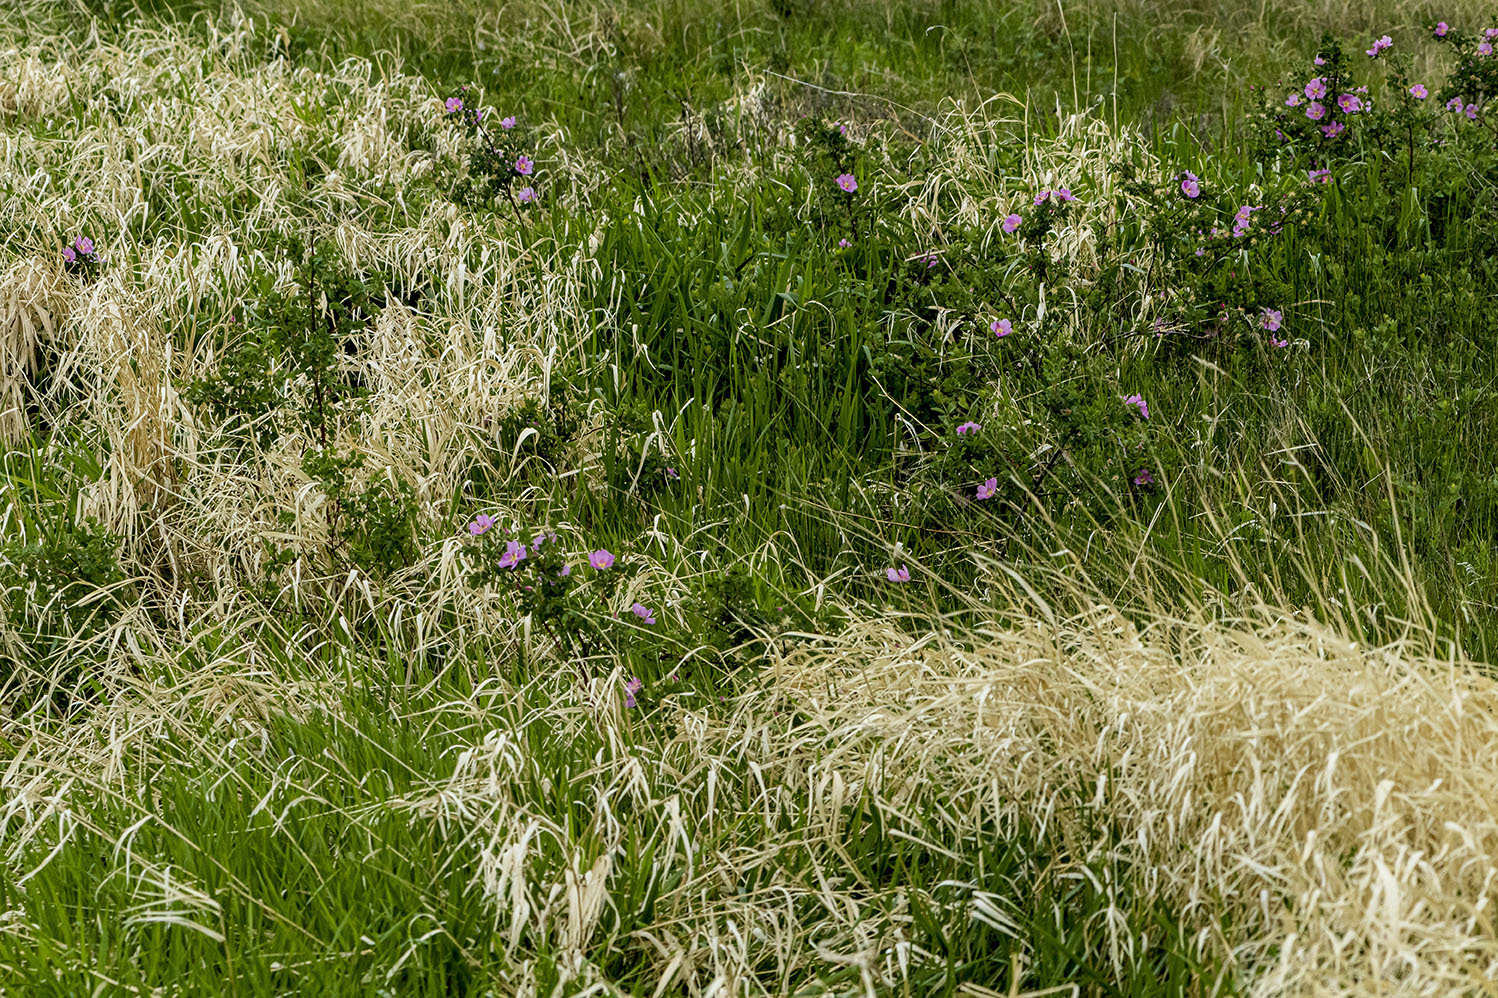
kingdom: Plantae
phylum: Tracheophyta
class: Magnoliopsida
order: Rosales
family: Rosaceae
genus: Rosa
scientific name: Rosa woodsii
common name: Woods's rose
